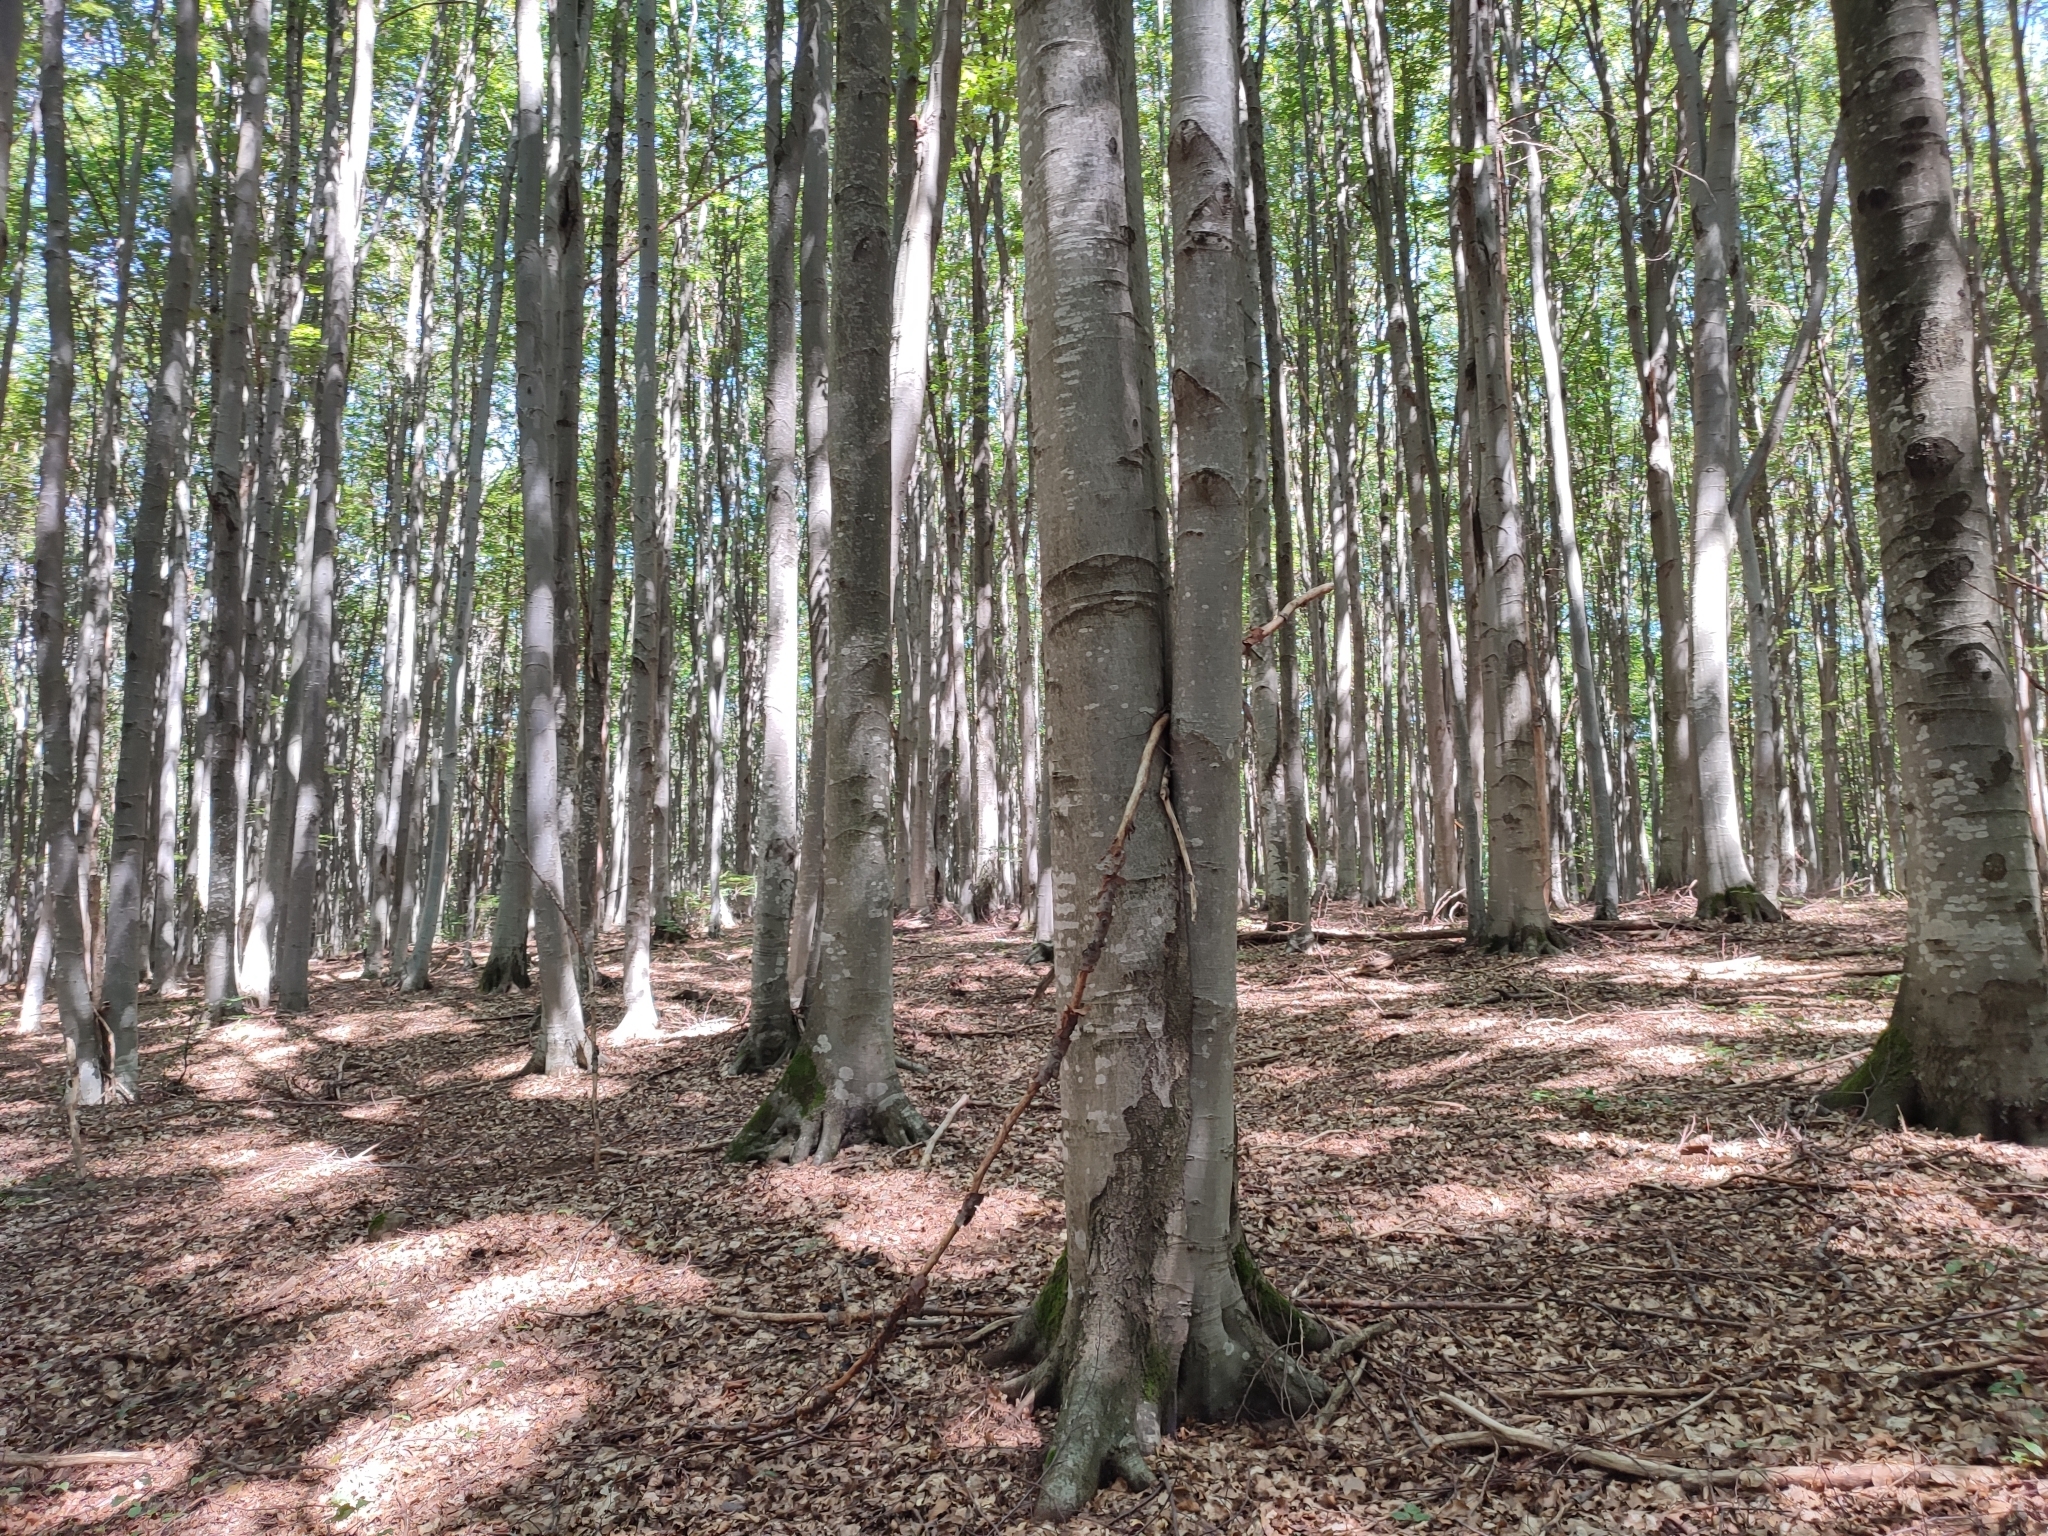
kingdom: Plantae
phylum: Tracheophyta
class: Magnoliopsida
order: Fagales
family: Fagaceae
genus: Fagus
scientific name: Fagus sylvatica
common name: Beech
